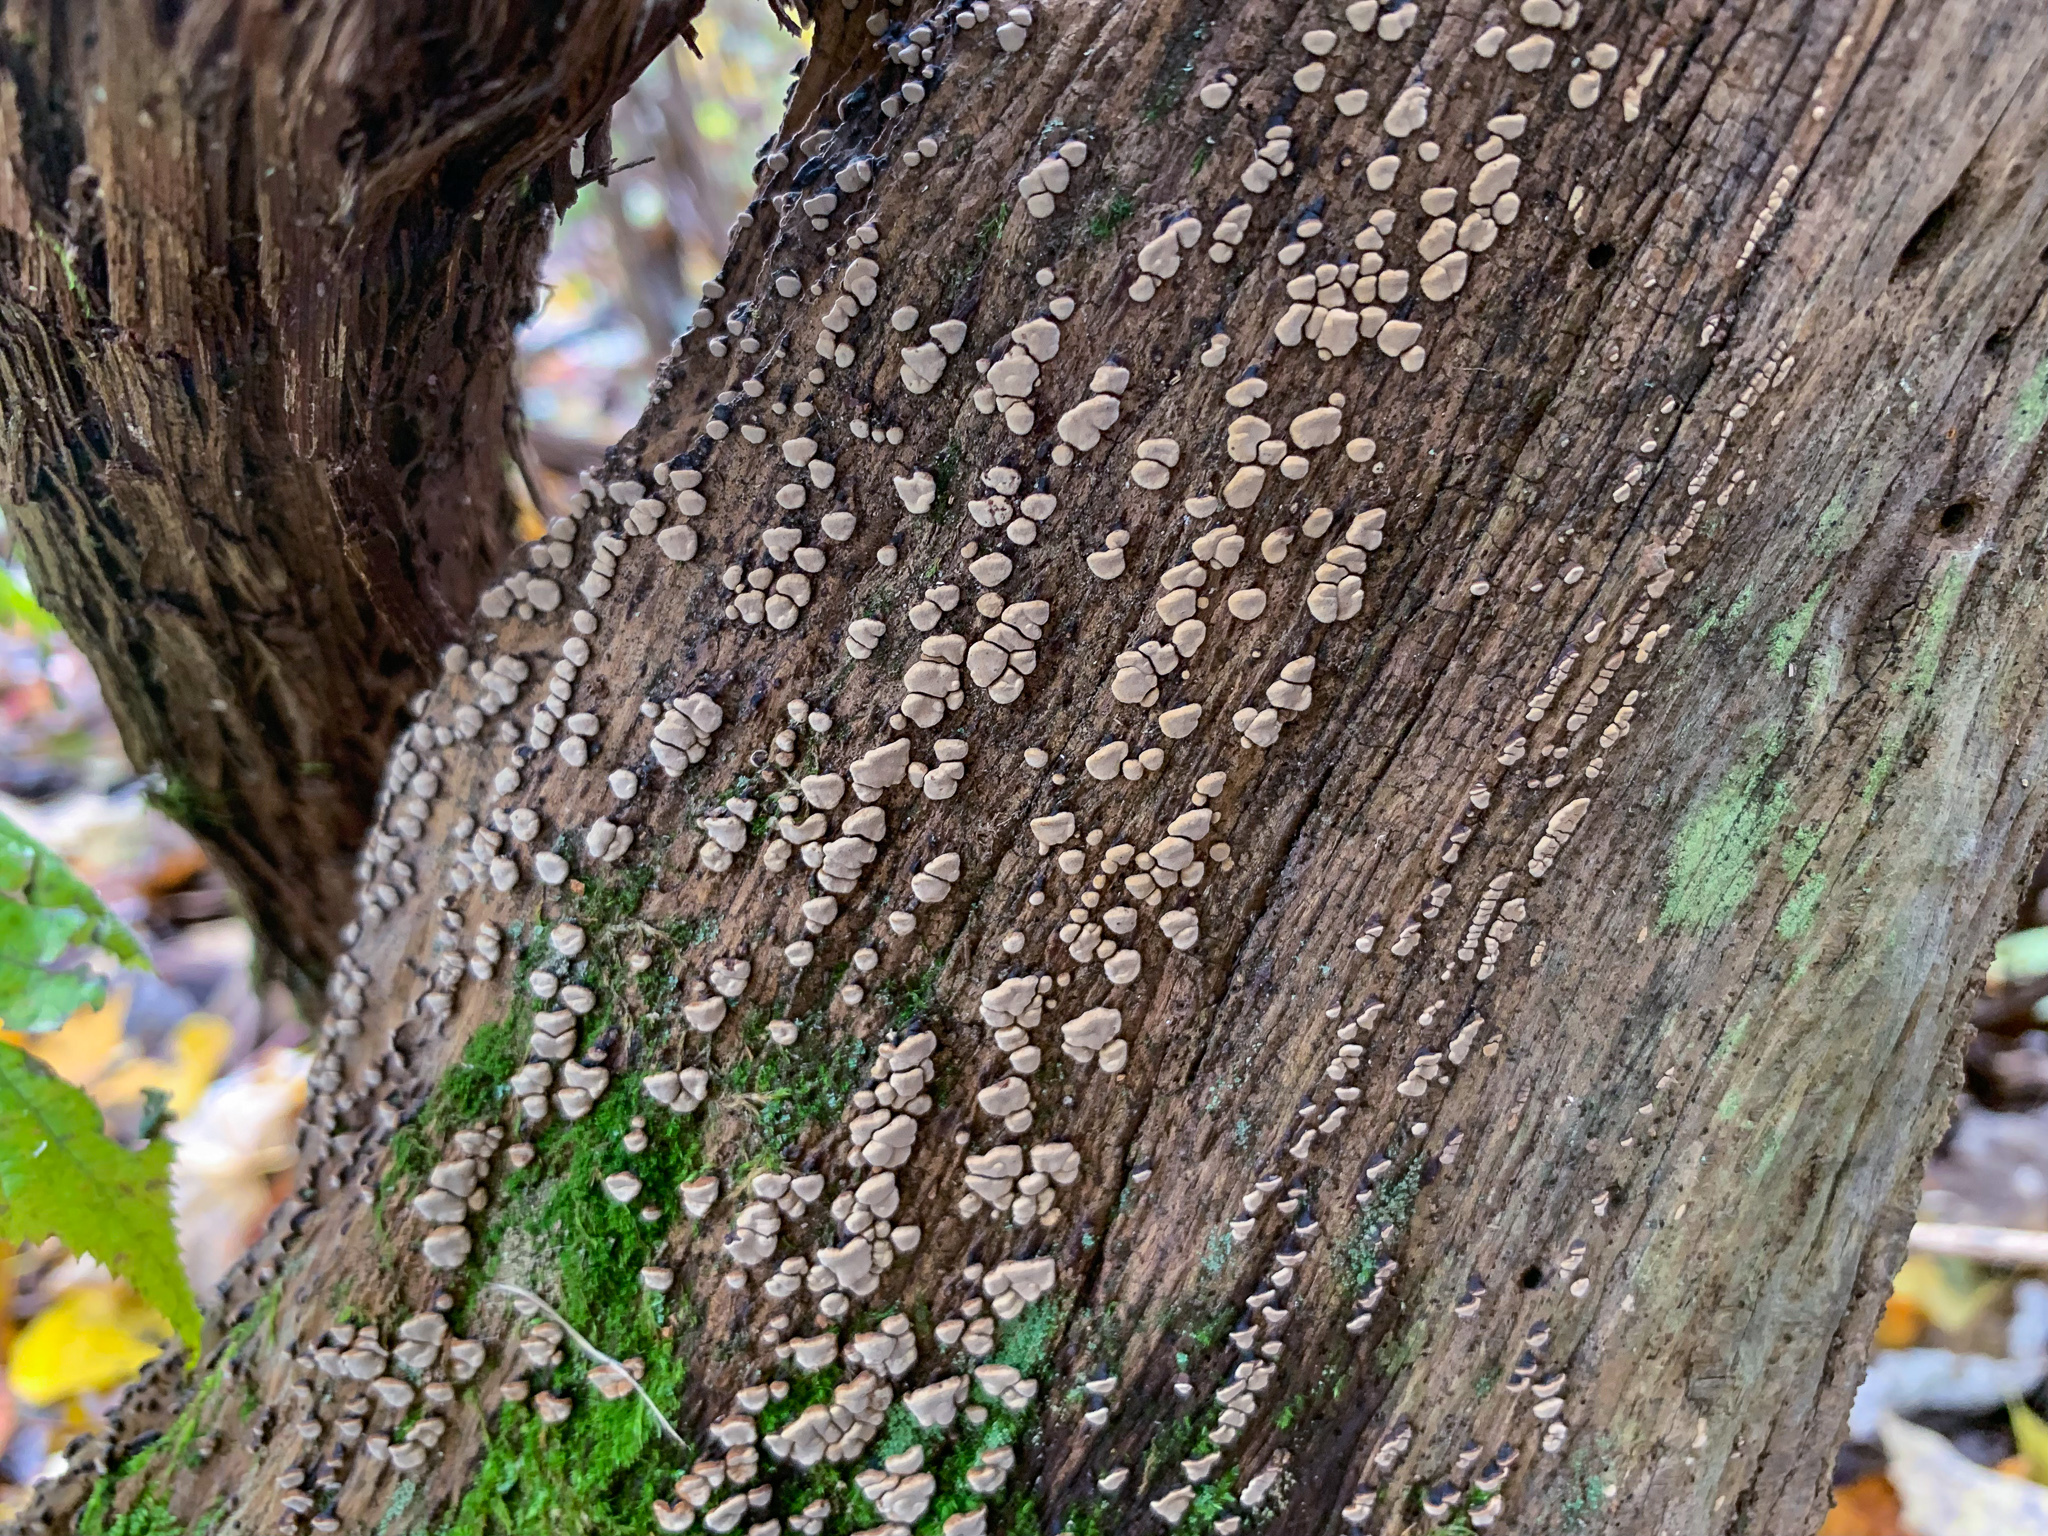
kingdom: Fungi
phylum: Basidiomycota
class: Agaricomycetes
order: Russulales
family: Stereaceae
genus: Xylobolus
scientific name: Xylobolus frustulatus
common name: Ceramic parchment
